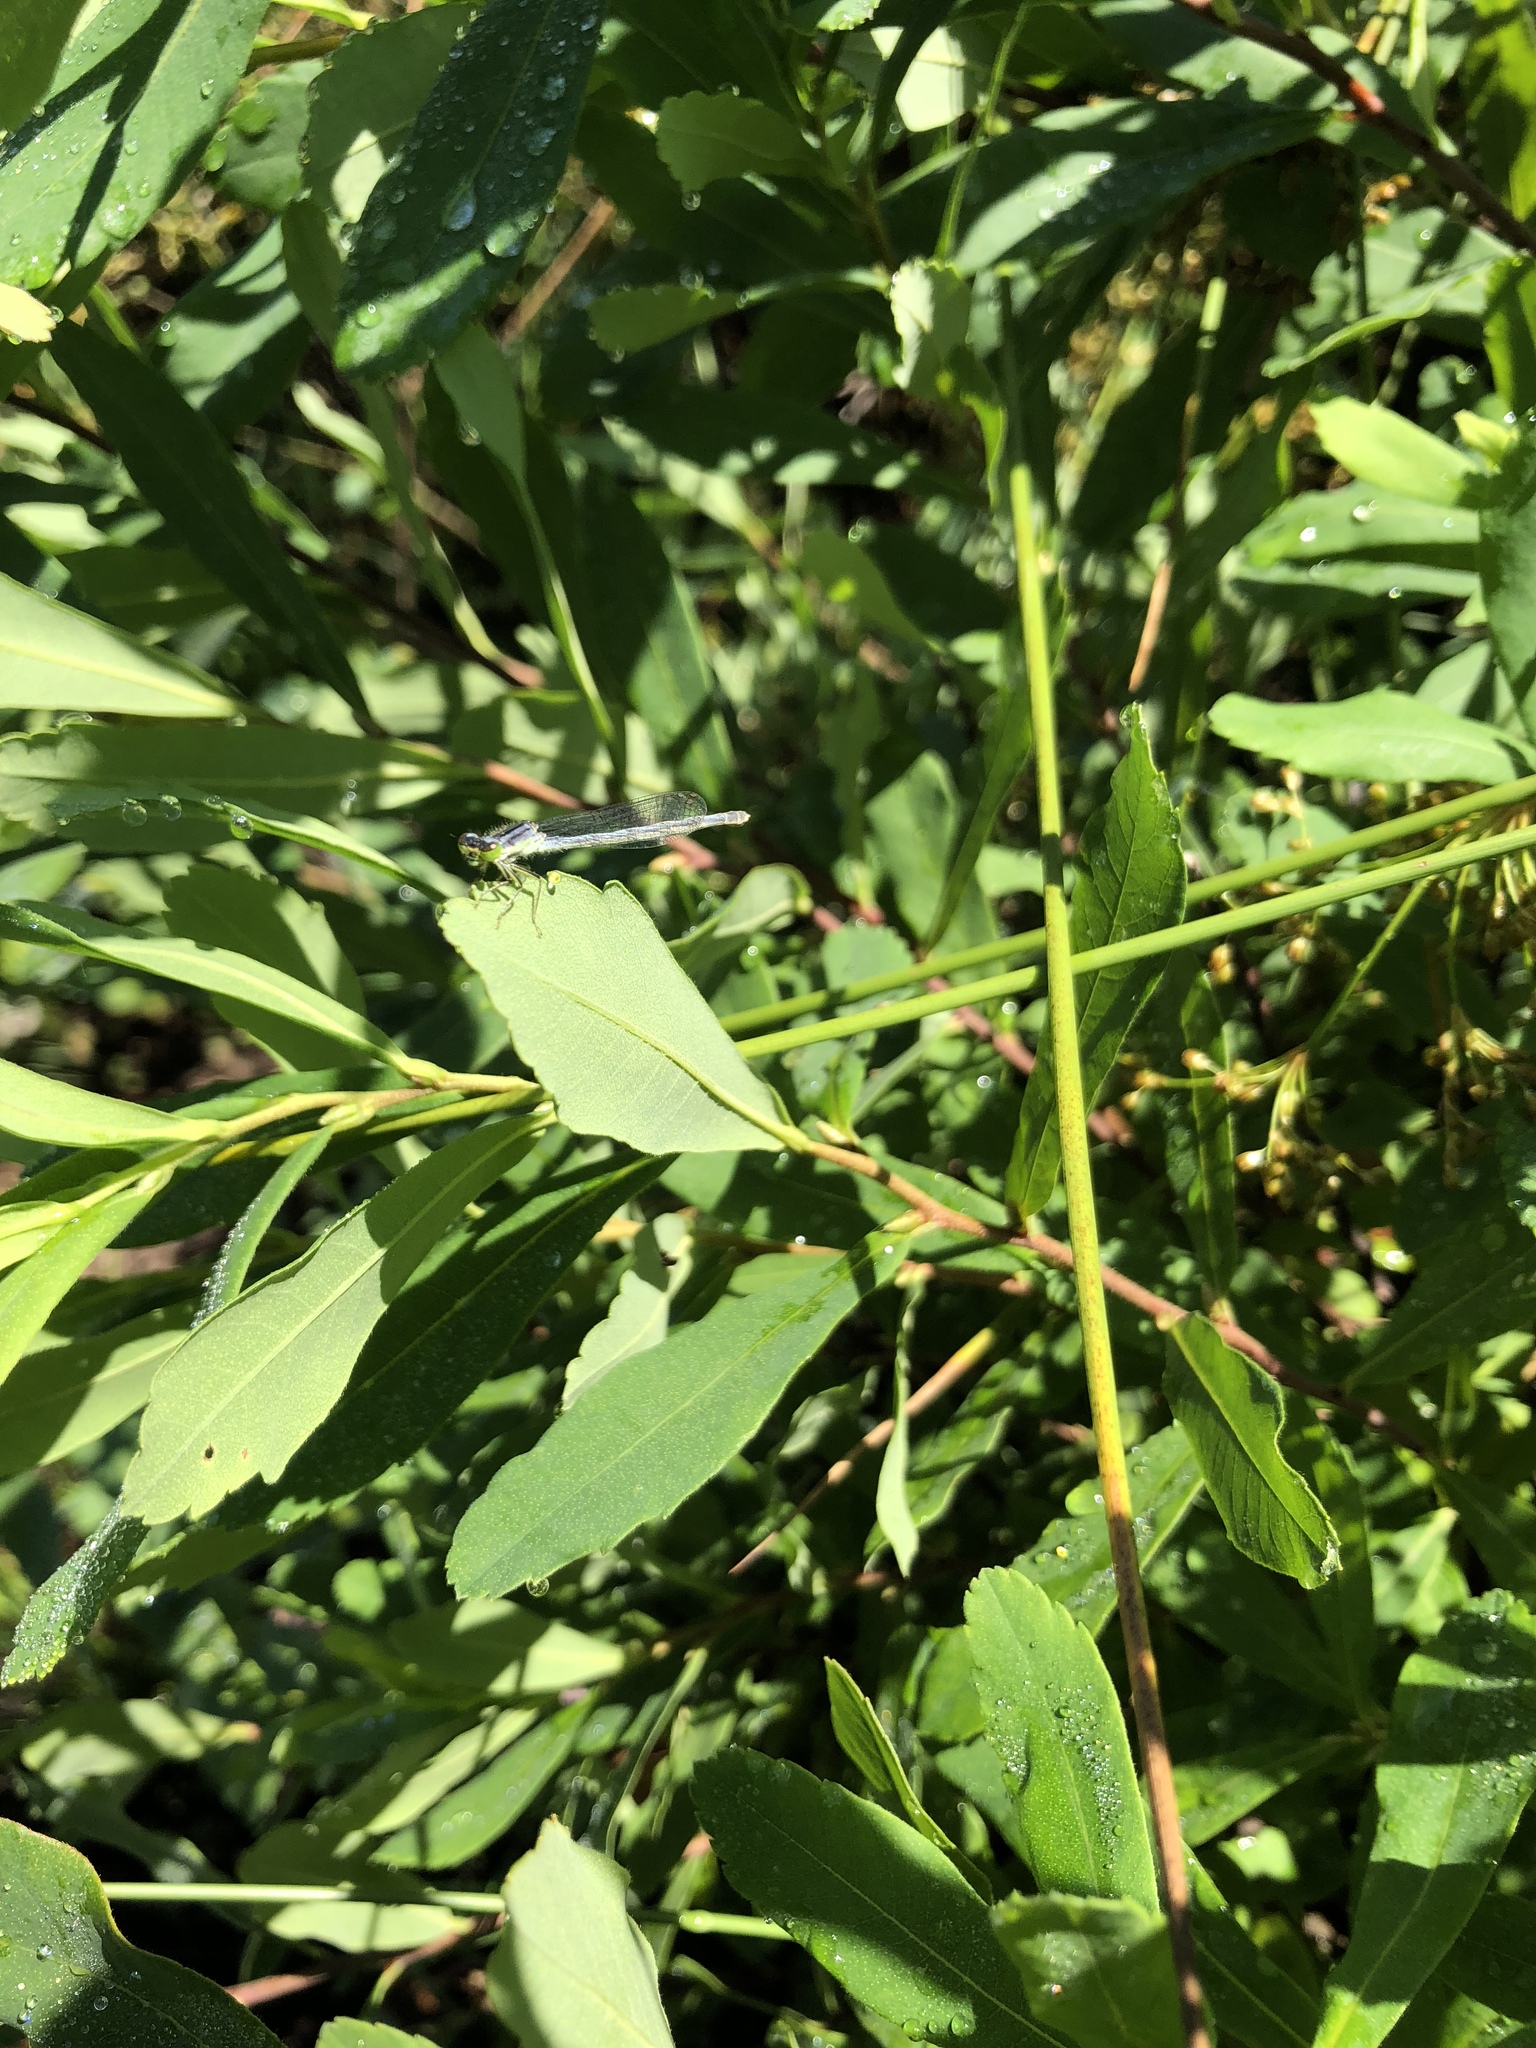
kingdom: Animalia
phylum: Arthropoda
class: Insecta
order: Odonata
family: Coenagrionidae
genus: Ischnura
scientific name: Ischnura verticalis
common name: Eastern forktail
